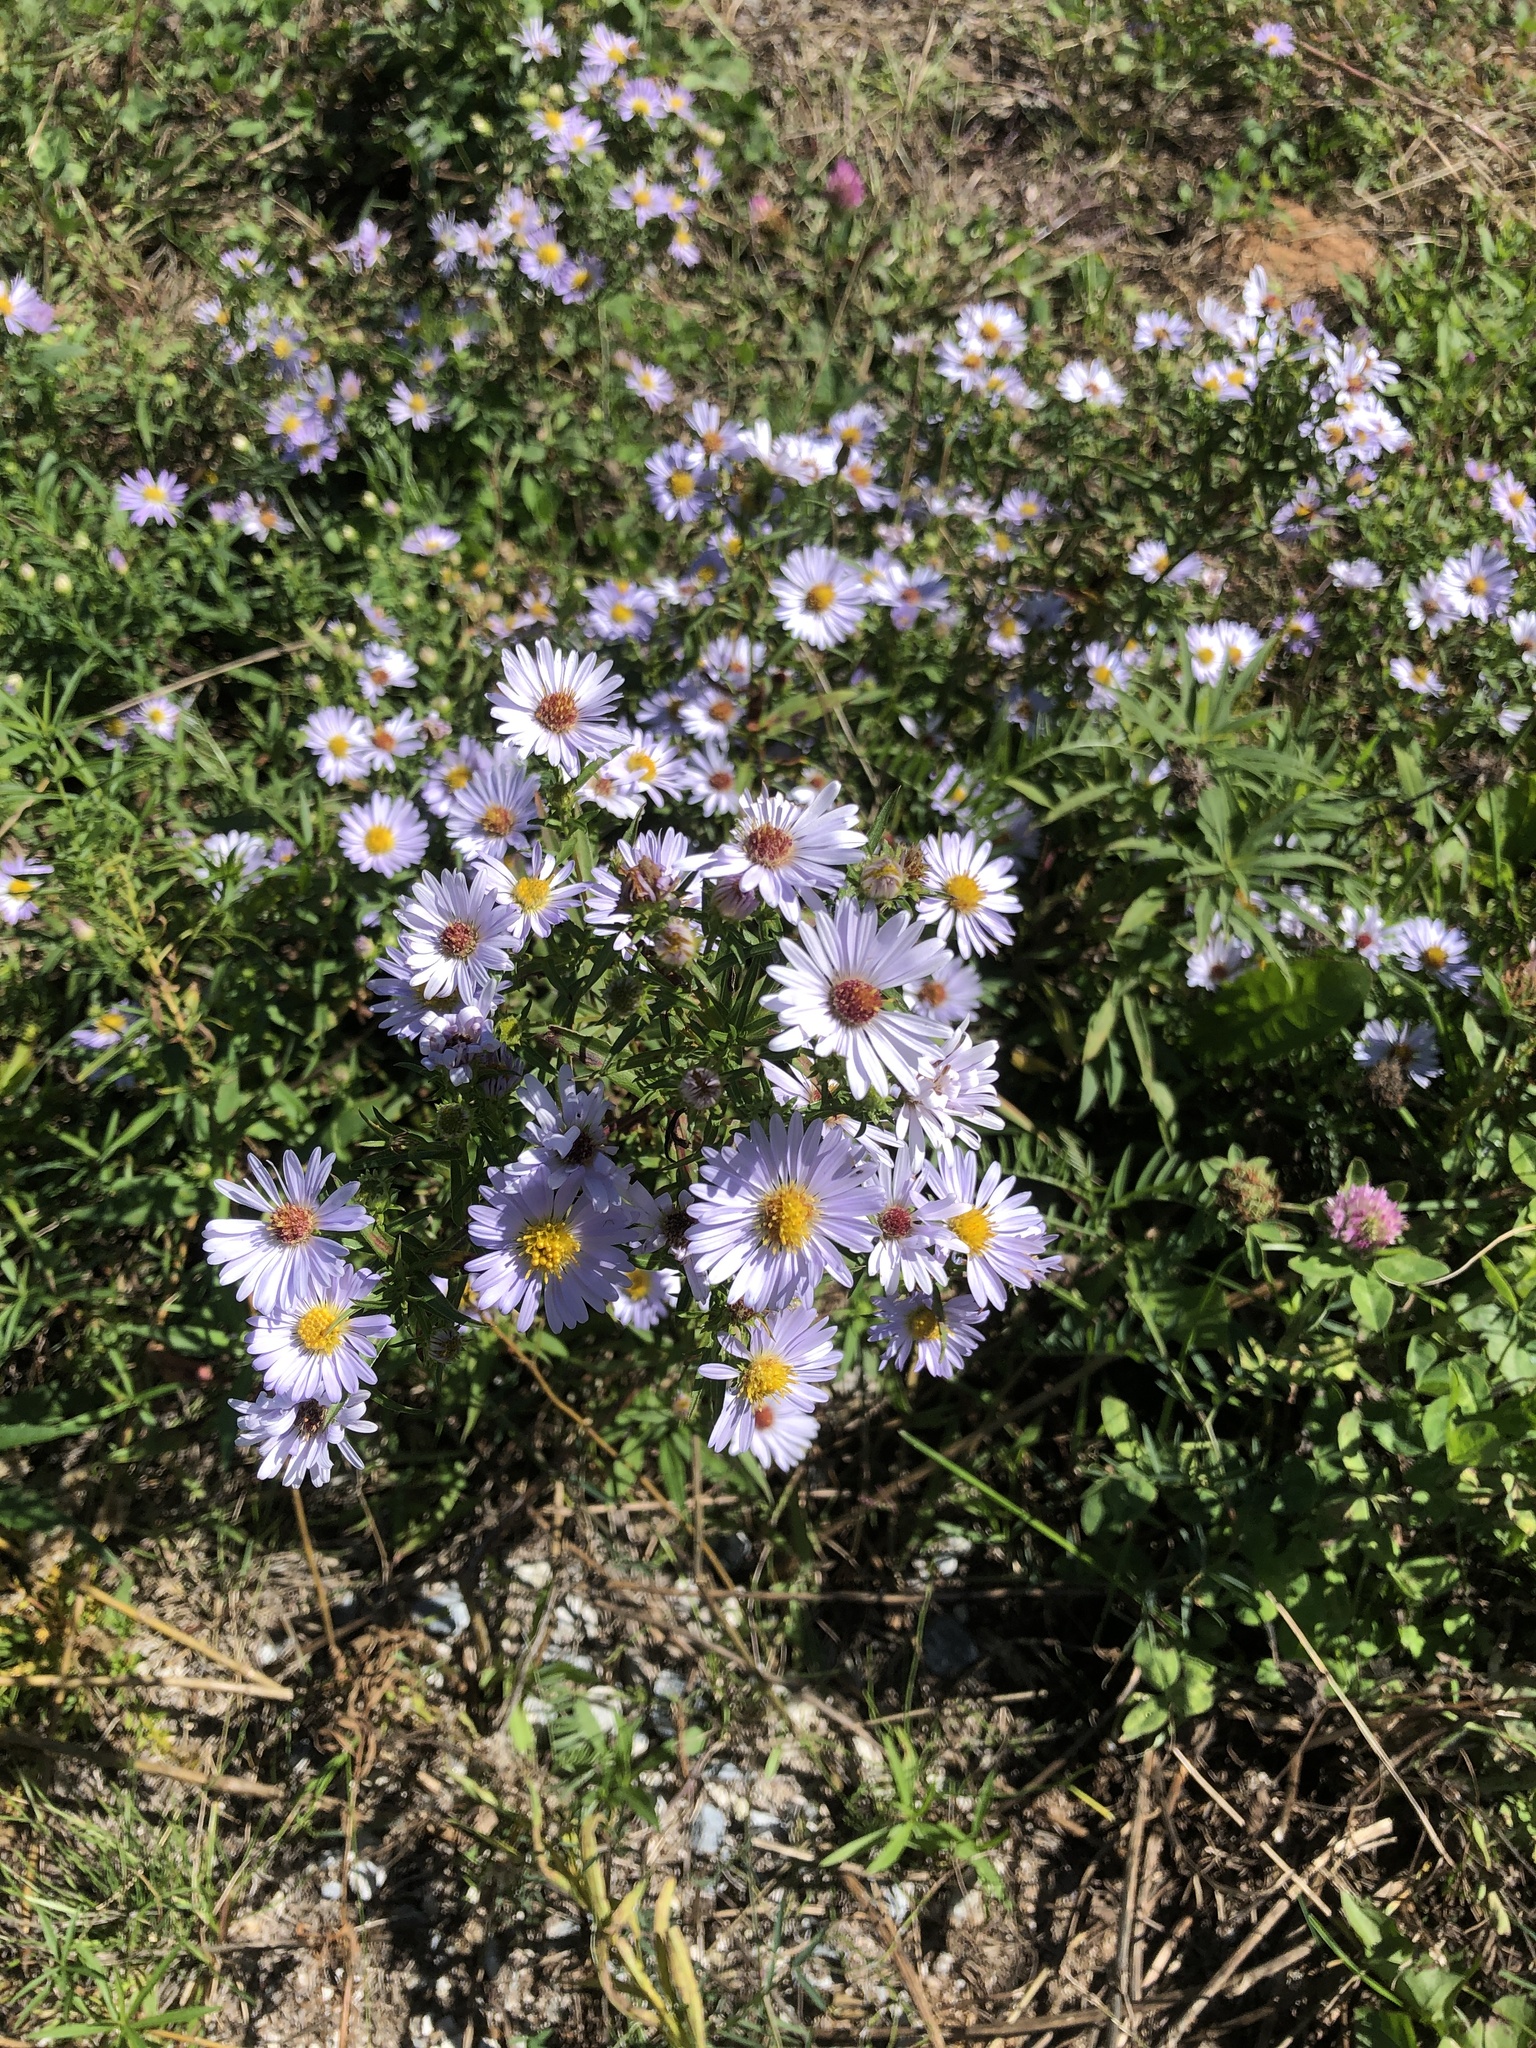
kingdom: Plantae
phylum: Tracheophyta
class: Magnoliopsida
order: Asterales
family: Asteraceae
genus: Symphyotrichum
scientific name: Symphyotrichum novi-belgii
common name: Michaelmas daisy
